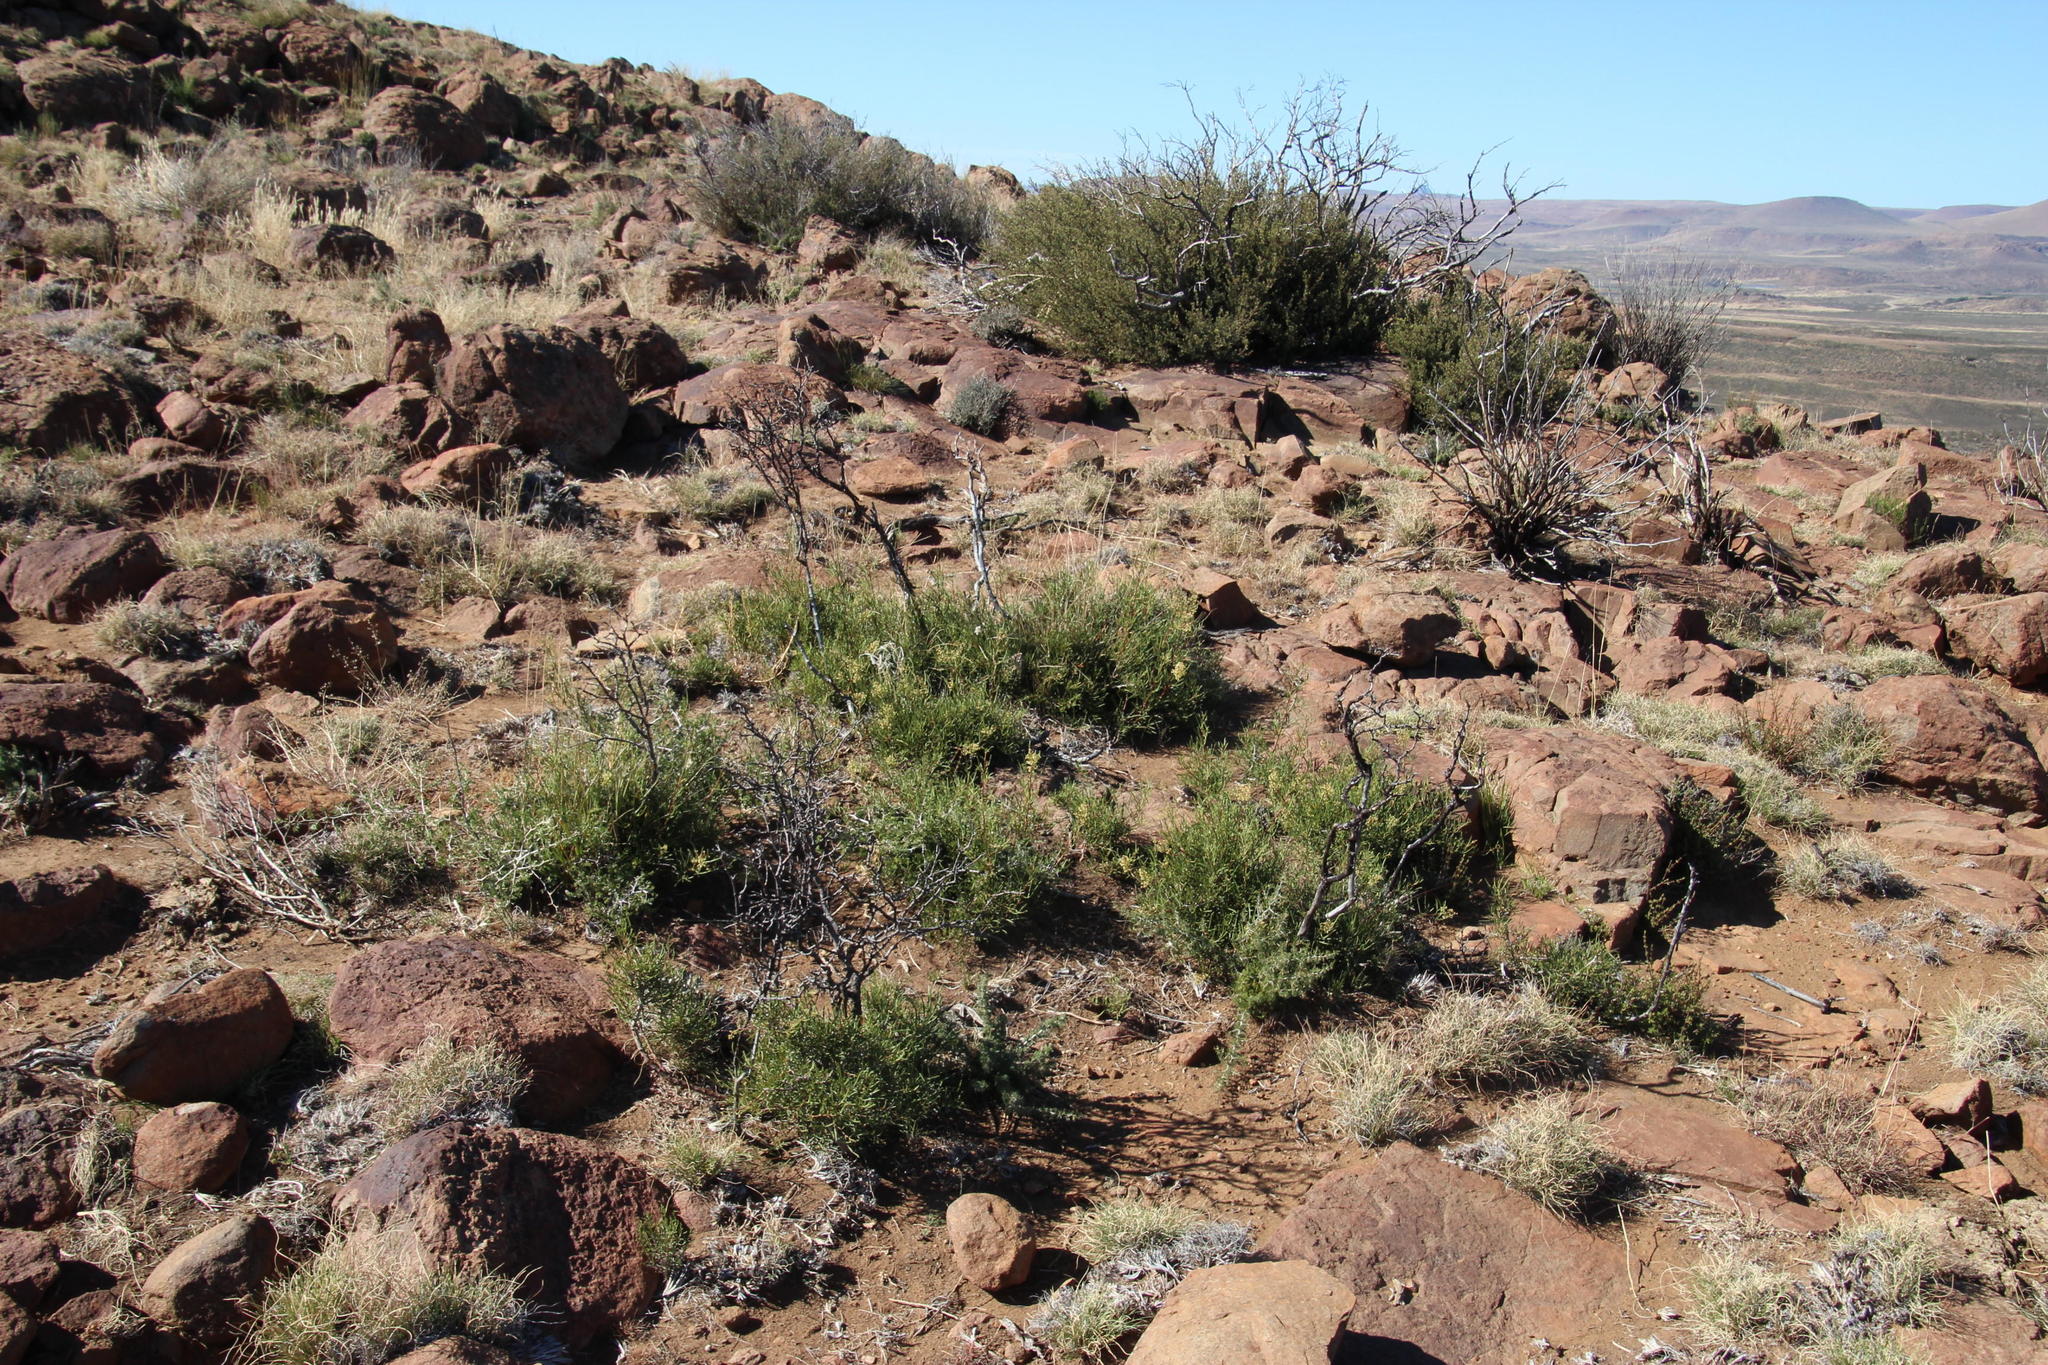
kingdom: Plantae
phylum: Tracheophyta
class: Magnoliopsida
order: Sapindales
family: Anacardiaceae
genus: Searsia
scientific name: Searsia dregeana
